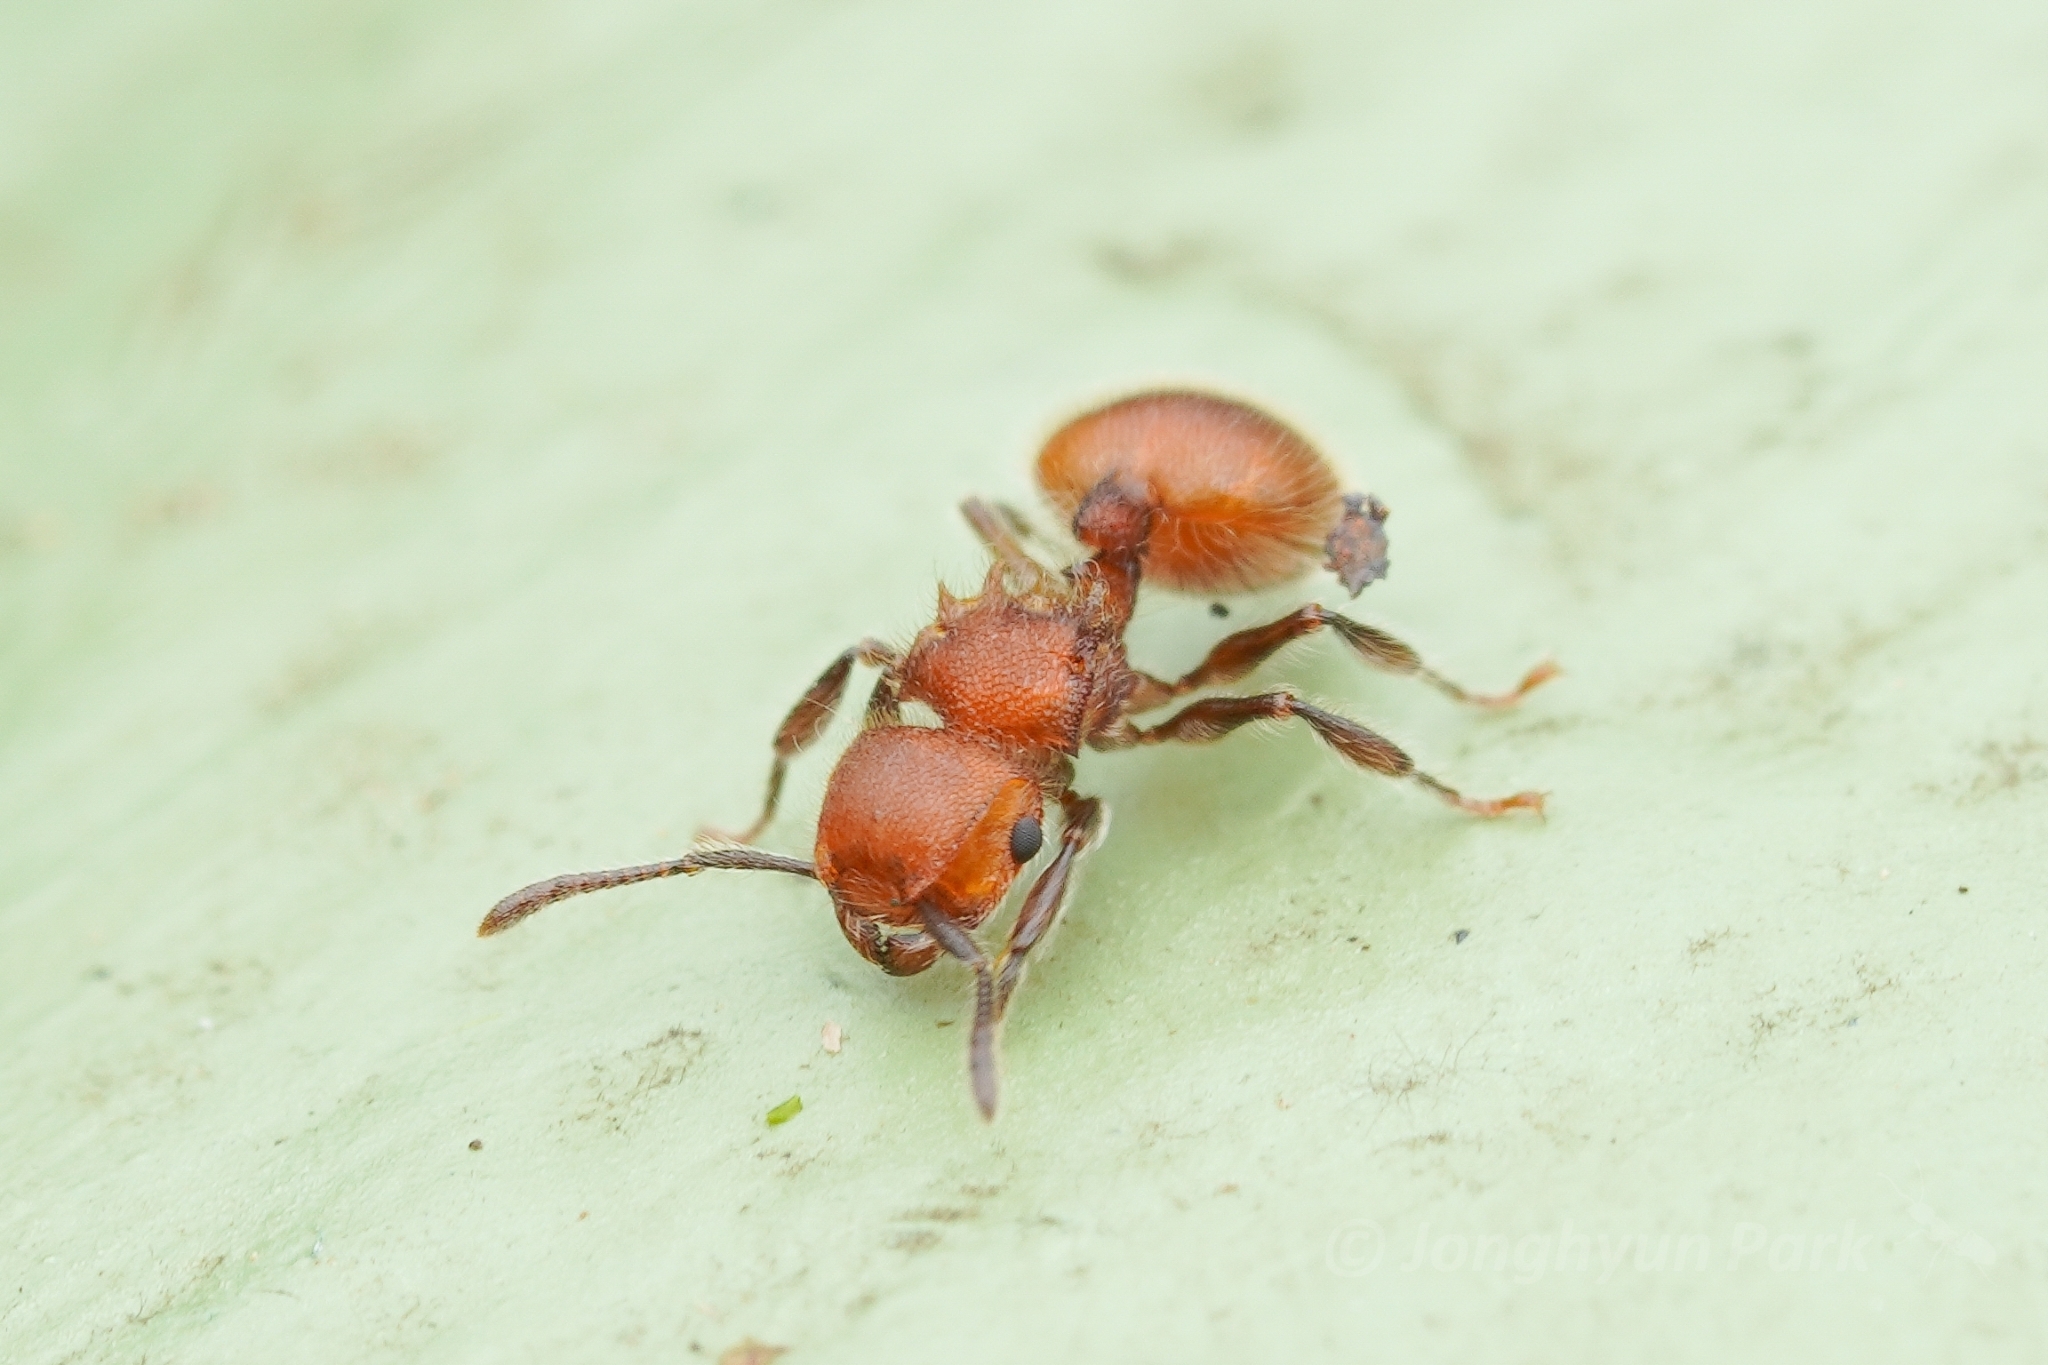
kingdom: Animalia
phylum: Arthropoda
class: Insecta
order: Hymenoptera
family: Formicidae
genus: Meranoplus
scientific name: Meranoplus castaneus
